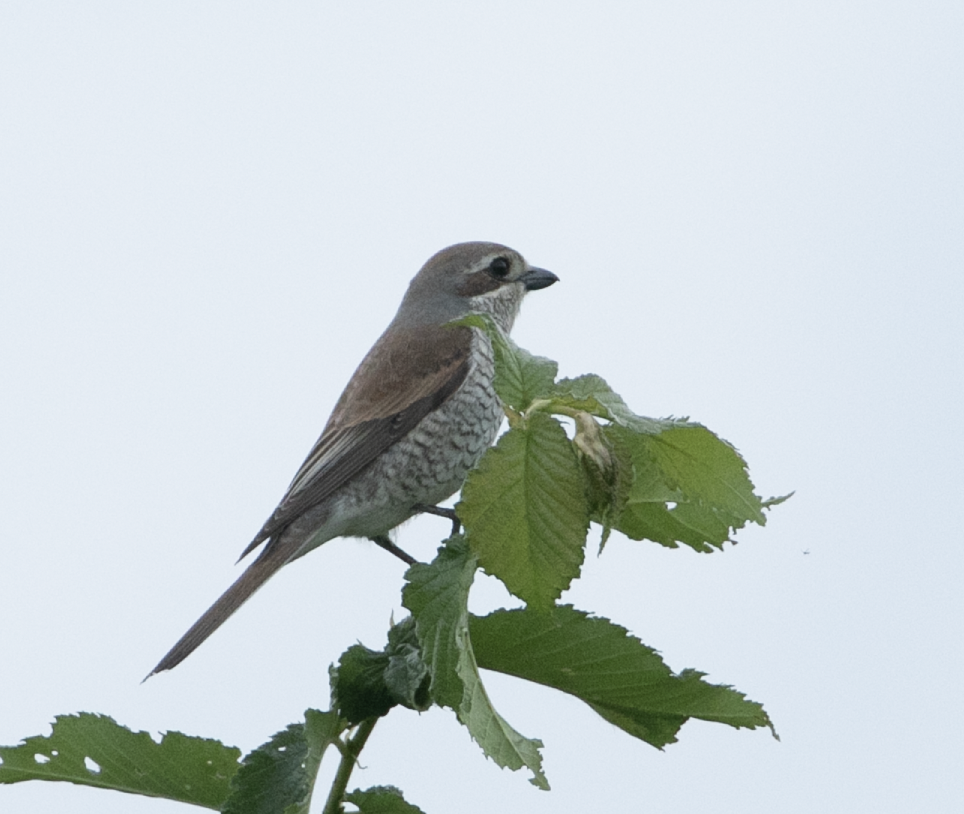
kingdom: Animalia
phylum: Chordata
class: Aves
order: Passeriformes
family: Laniidae
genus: Lanius
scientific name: Lanius collurio
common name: Red-backed shrike
